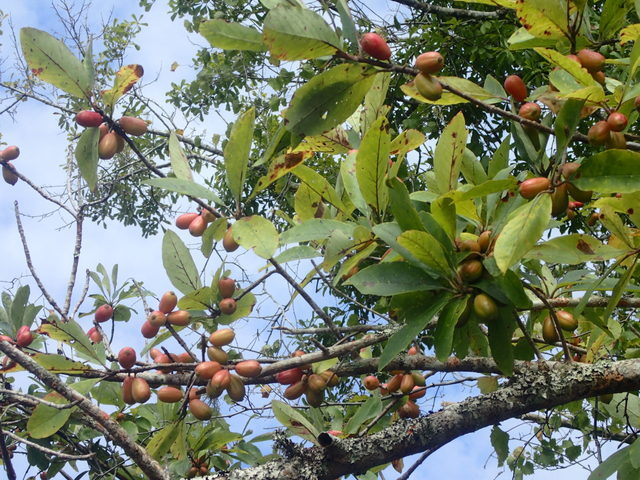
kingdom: Plantae
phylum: Tracheophyta
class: Magnoliopsida
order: Cornales
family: Nyssaceae
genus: Nyssa
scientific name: Nyssa ogeche
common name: Ogeechee tupelo
